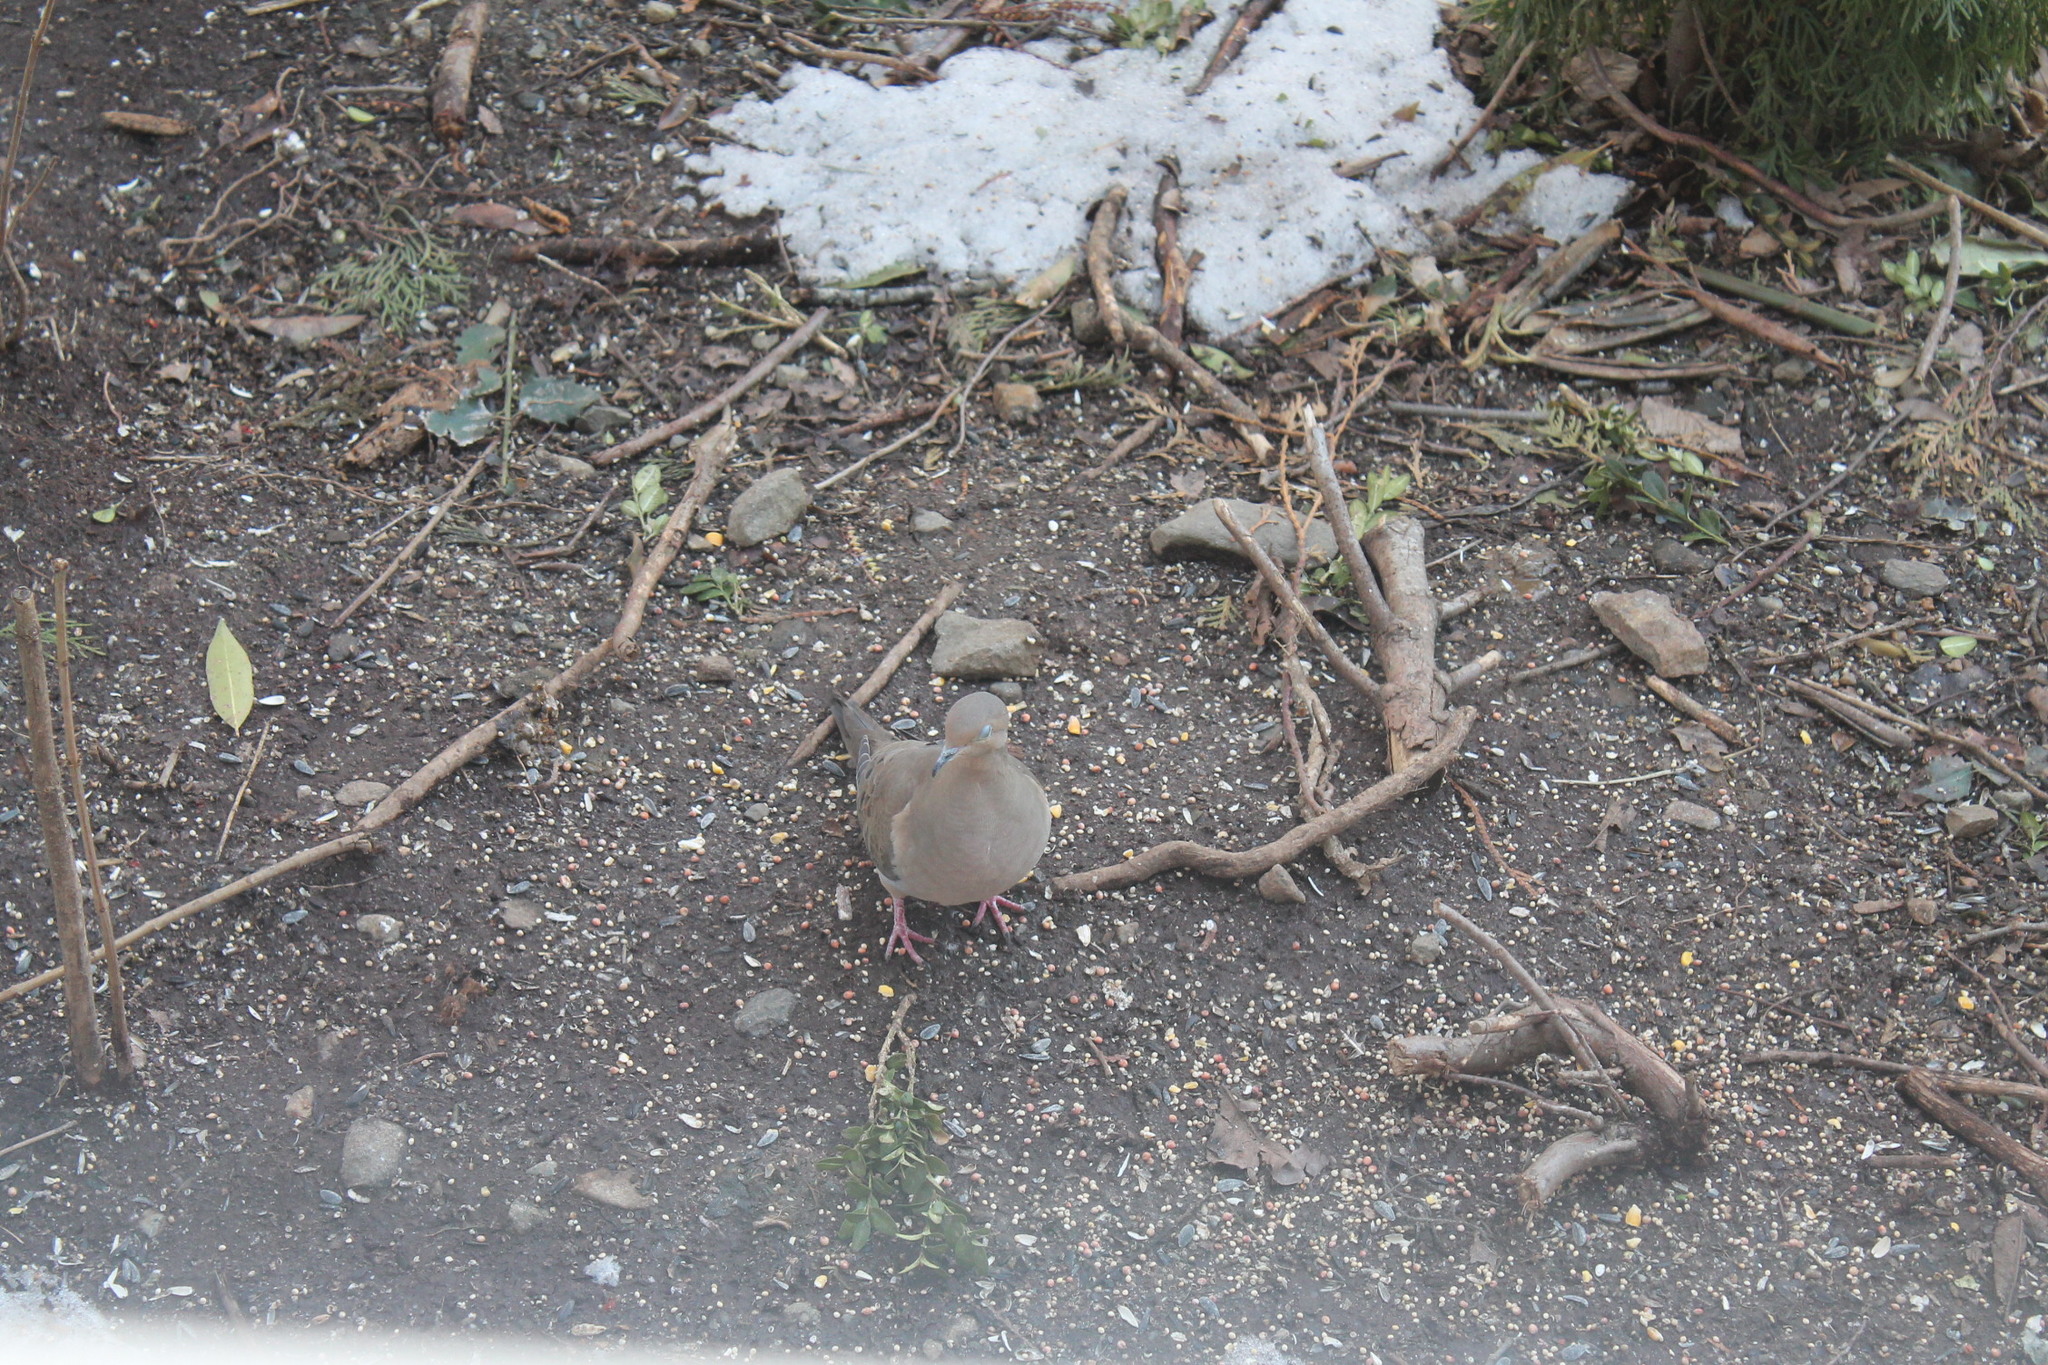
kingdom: Animalia
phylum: Chordata
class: Aves
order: Columbiformes
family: Columbidae
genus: Zenaida
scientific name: Zenaida macroura
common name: Mourning dove
